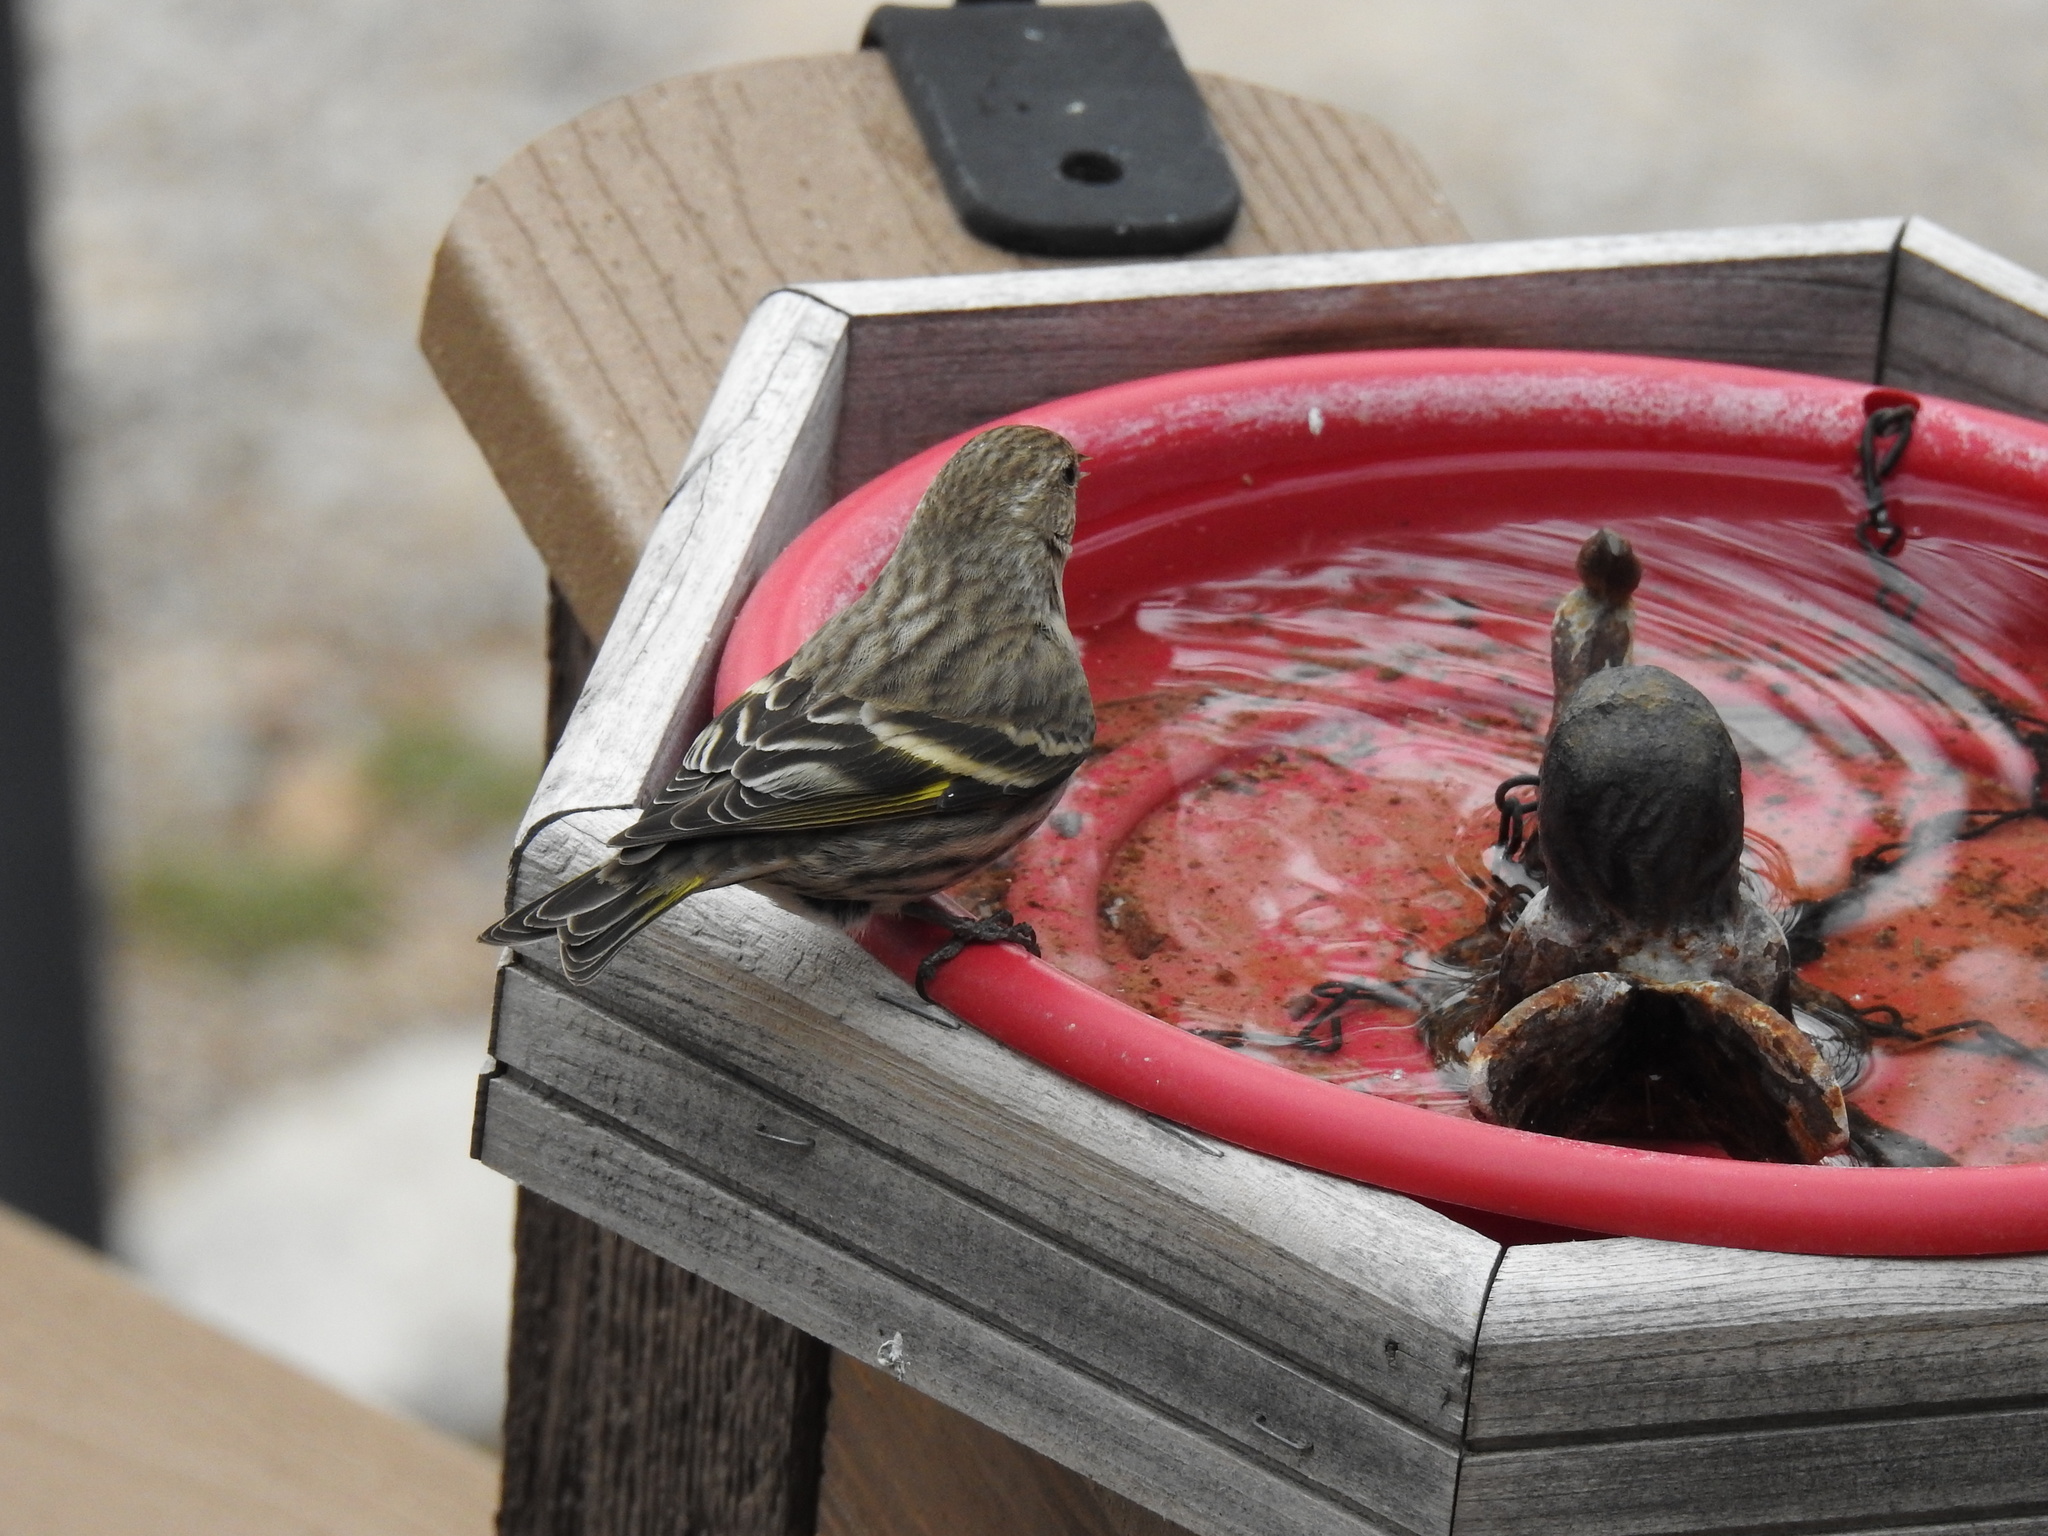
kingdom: Animalia
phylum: Chordata
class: Aves
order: Passeriformes
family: Fringillidae
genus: Spinus
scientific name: Spinus pinus
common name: Pine siskin
